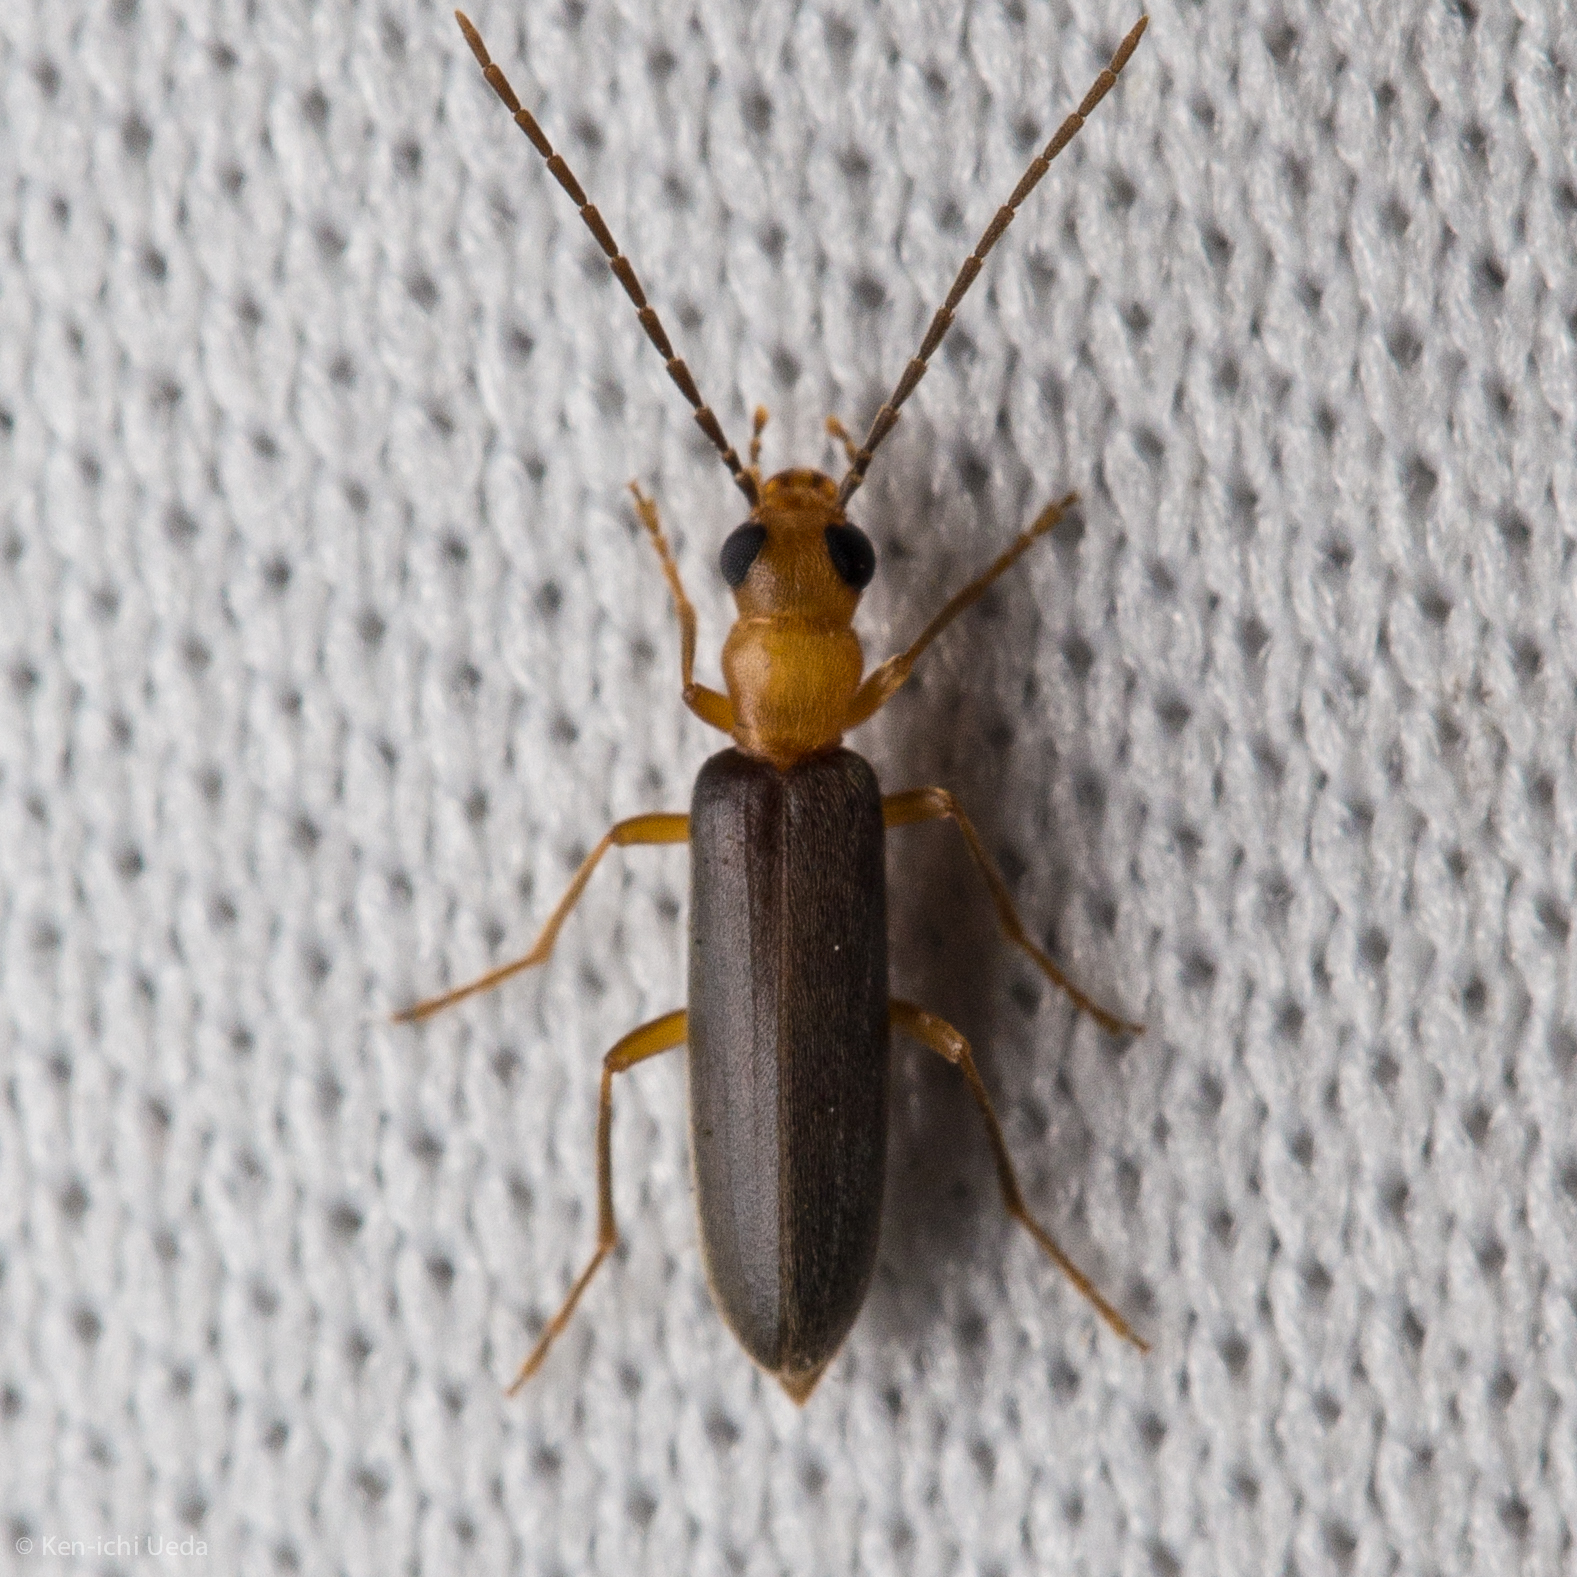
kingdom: Animalia
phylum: Arthropoda
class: Insecta
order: Coleoptera
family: Oedemeridae
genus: Xanthochroina
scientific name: Xanthochroina bicolor
